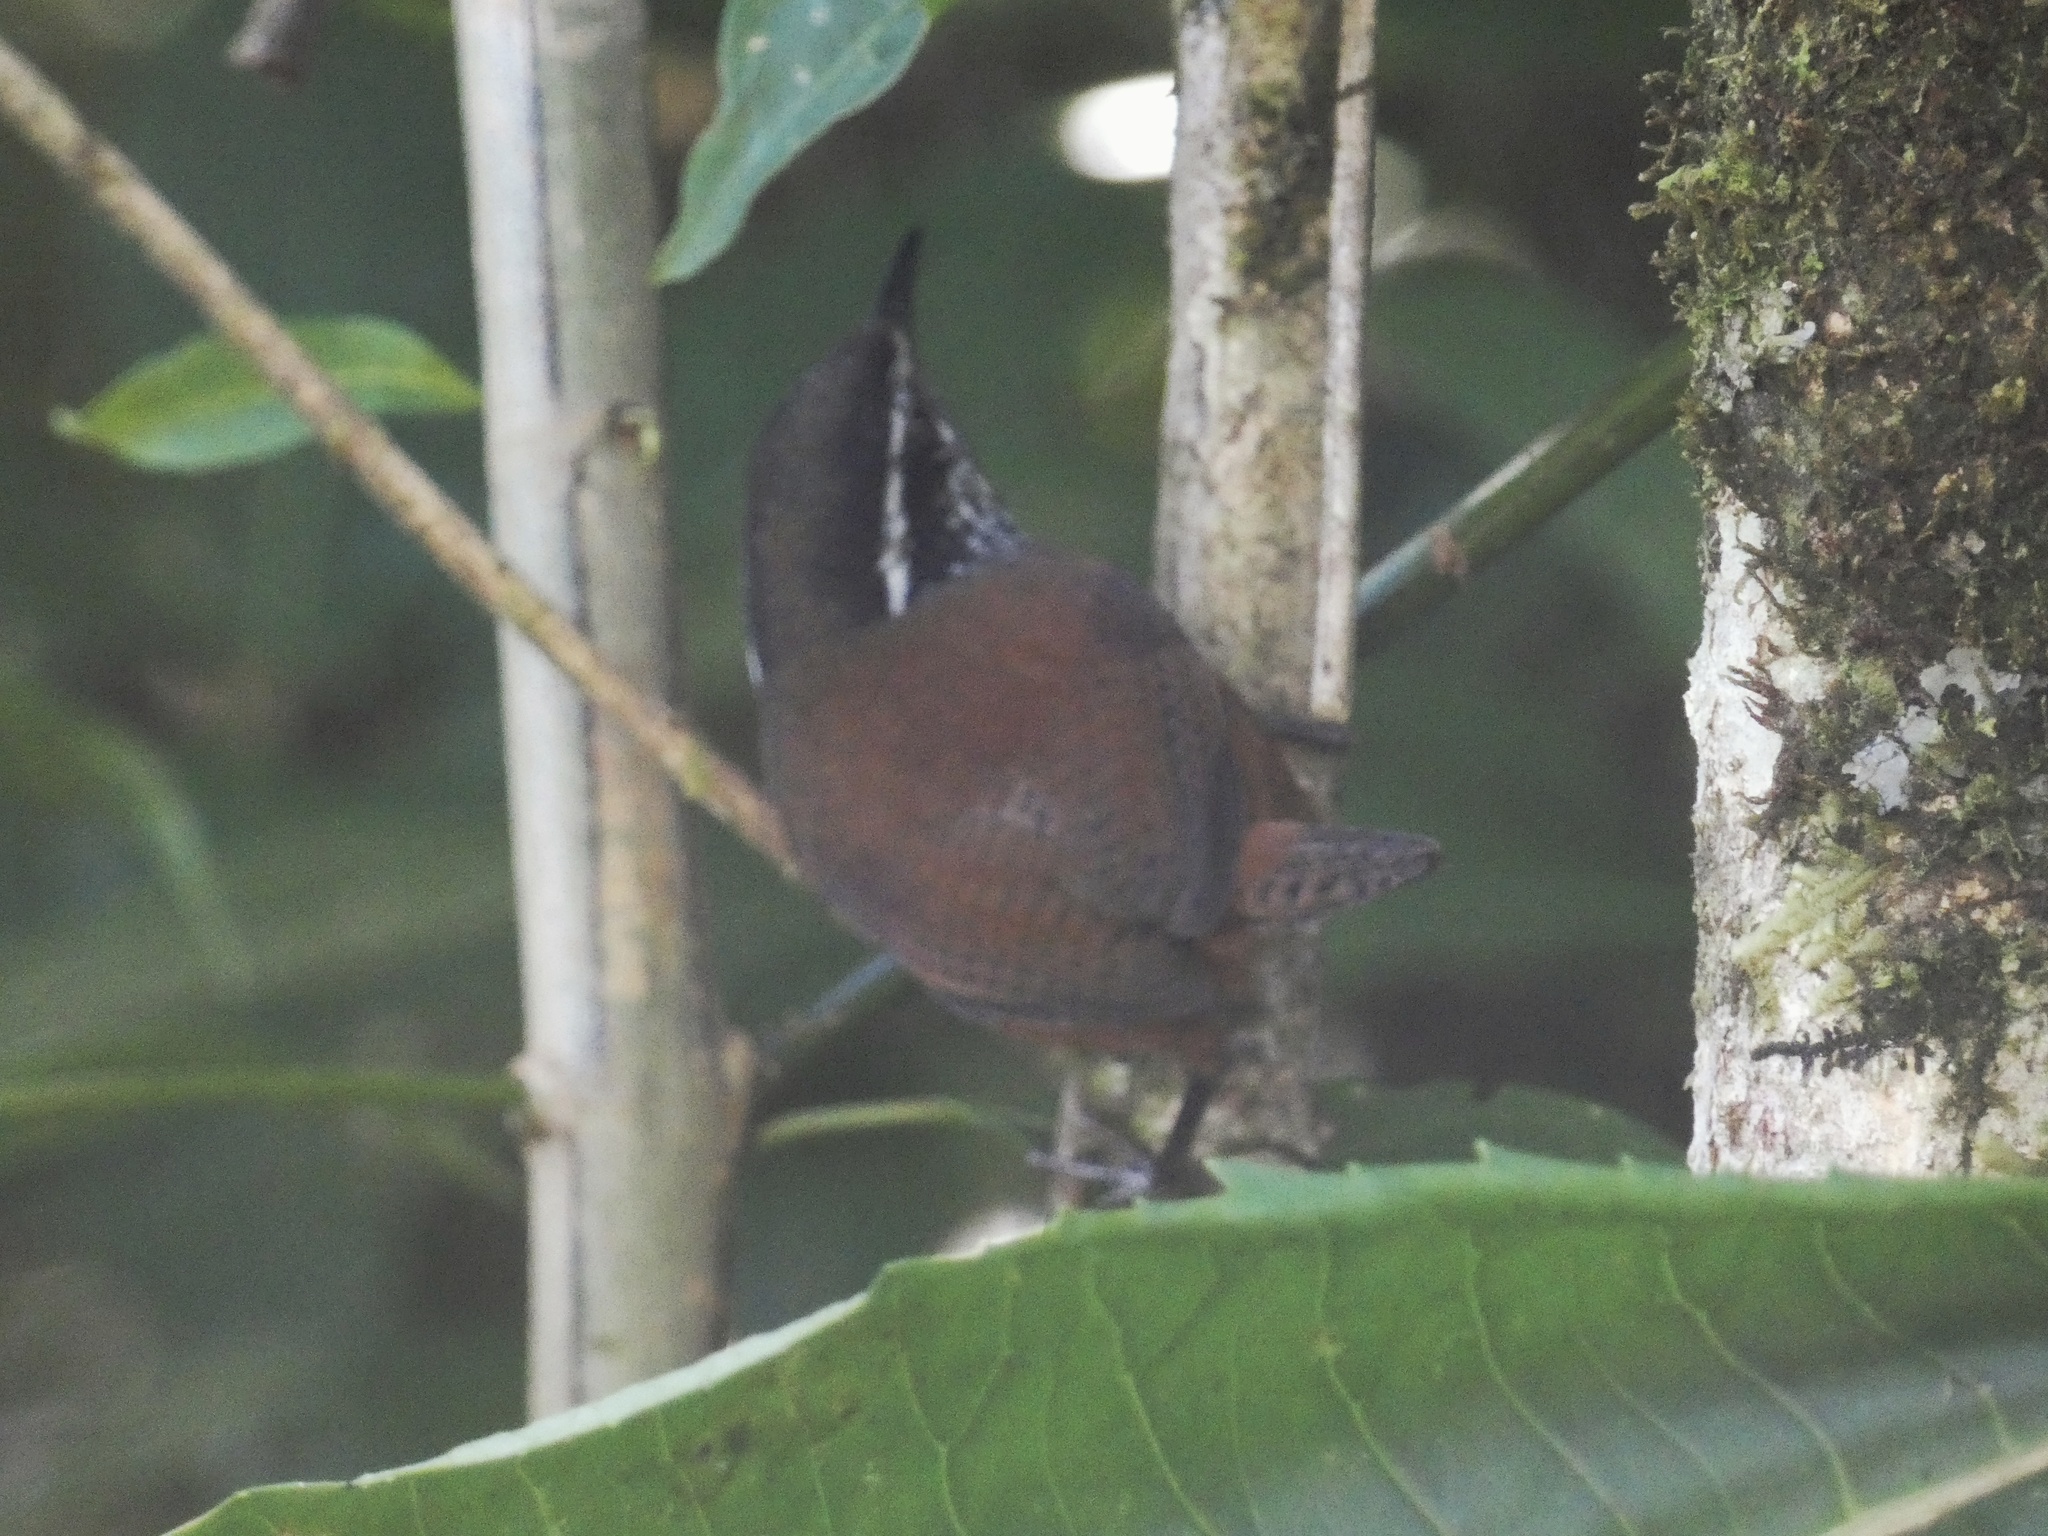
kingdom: Animalia
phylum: Chordata
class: Aves
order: Passeriformes
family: Troglodytidae
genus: Henicorhina
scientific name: Henicorhina leucophrys
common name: Gray-breasted wood-wren
